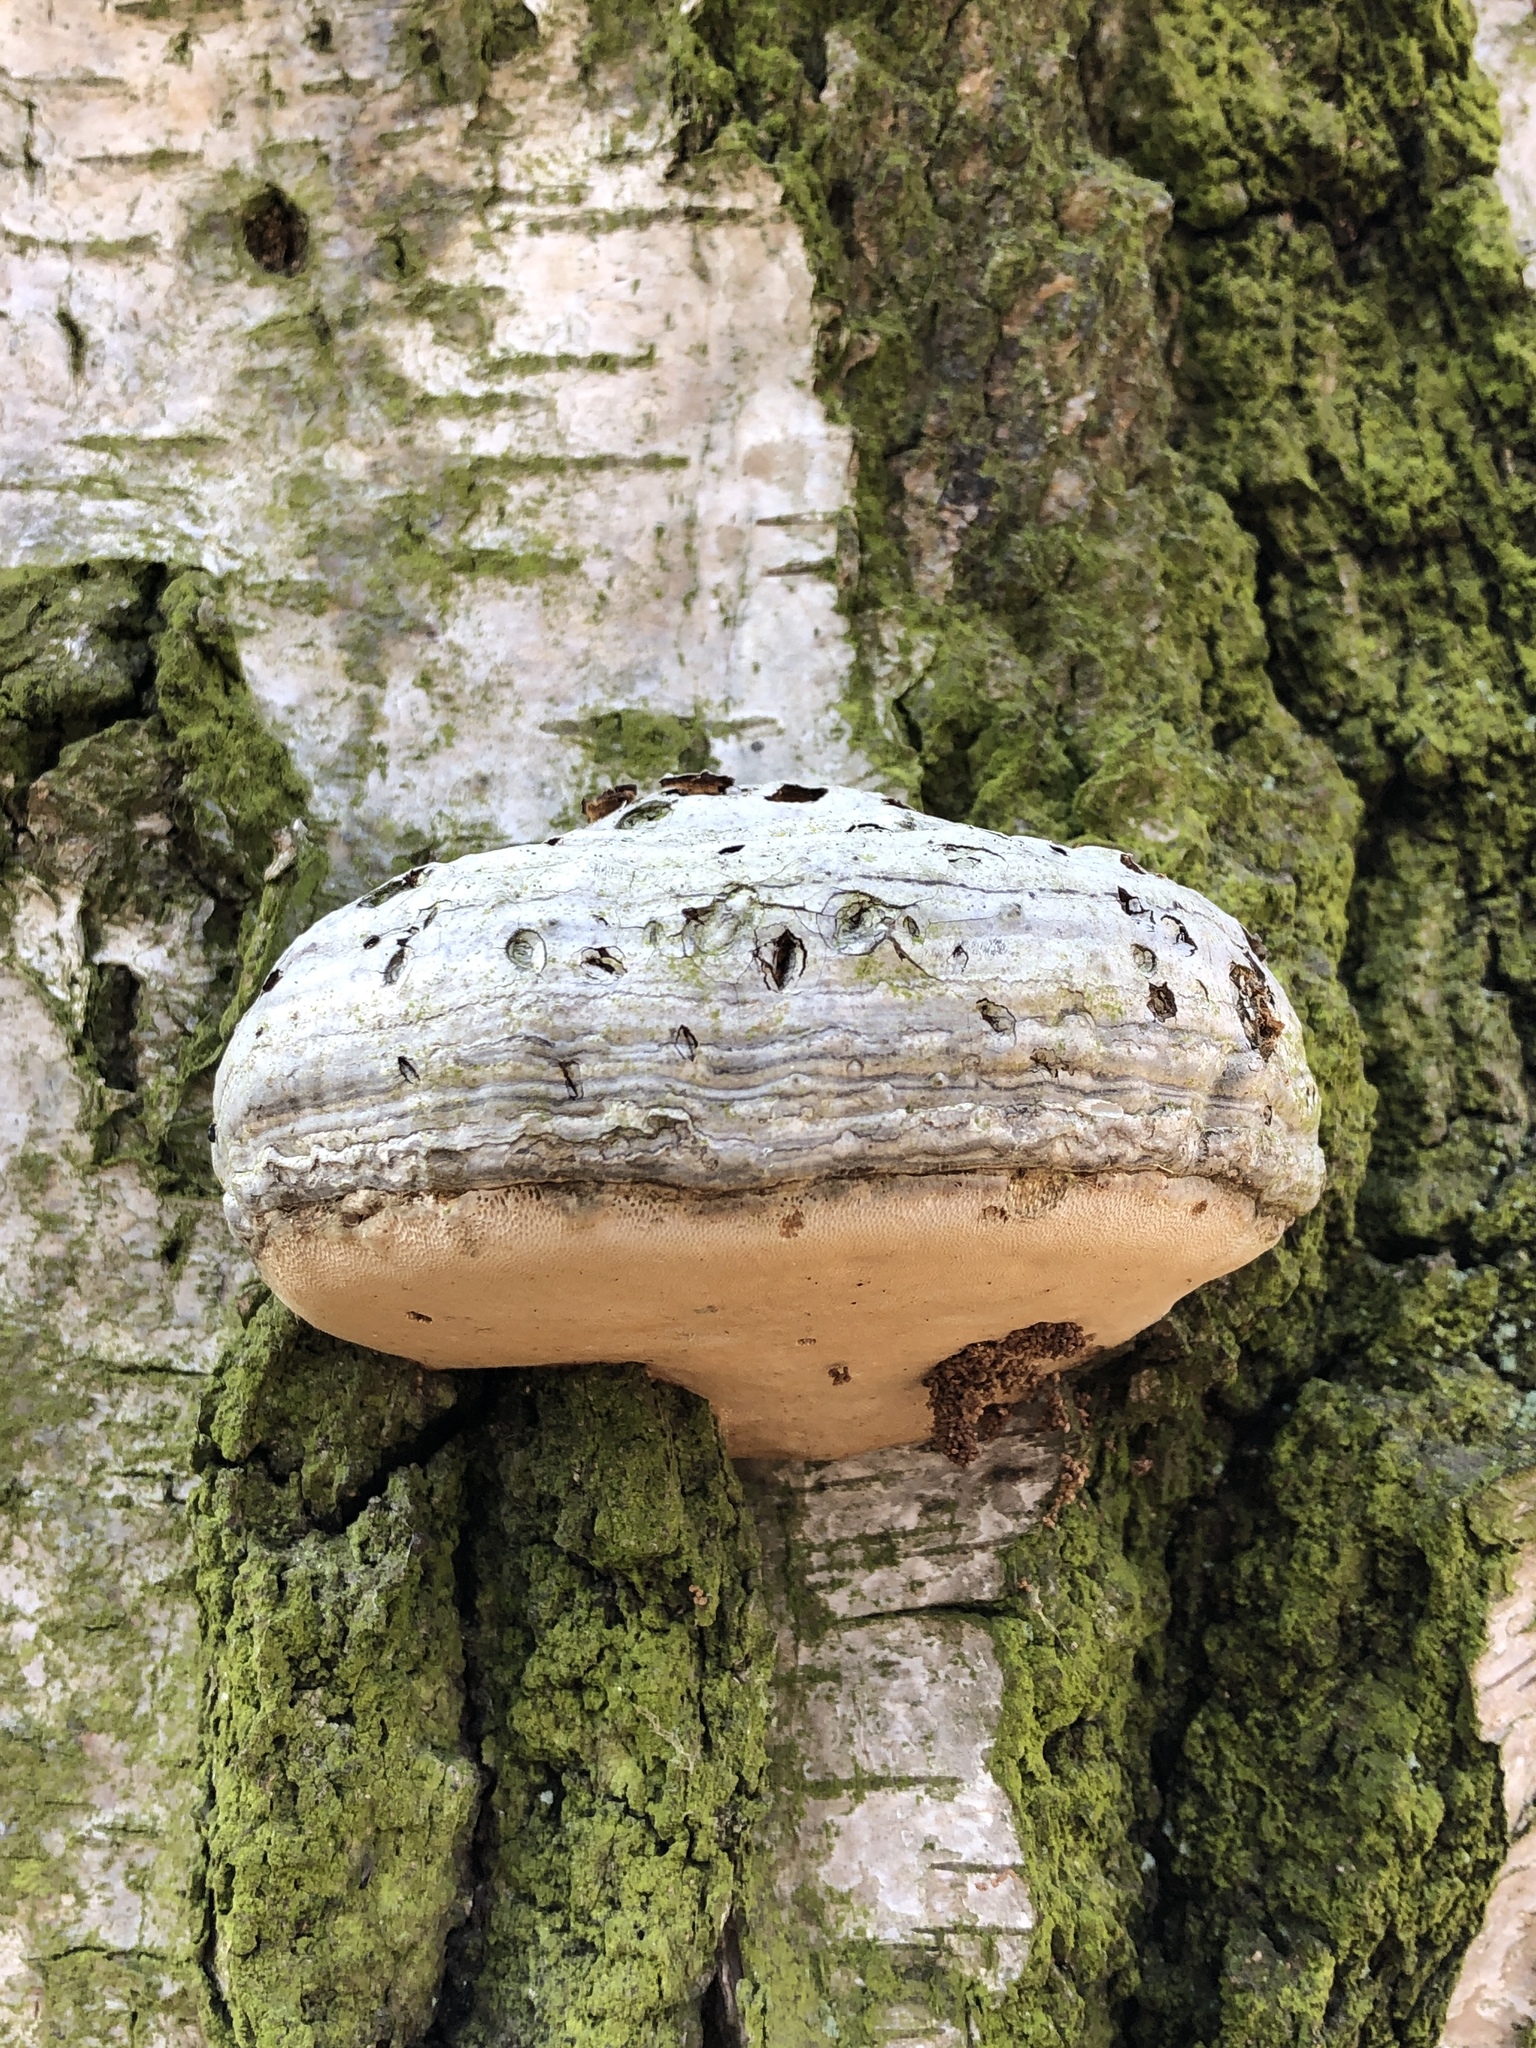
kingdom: Fungi
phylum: Basidiomycota
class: Agaricomycetes
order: Polyporales
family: Polyporaceae
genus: Fomes
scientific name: Fomes fomentarius
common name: Hoof fungus
